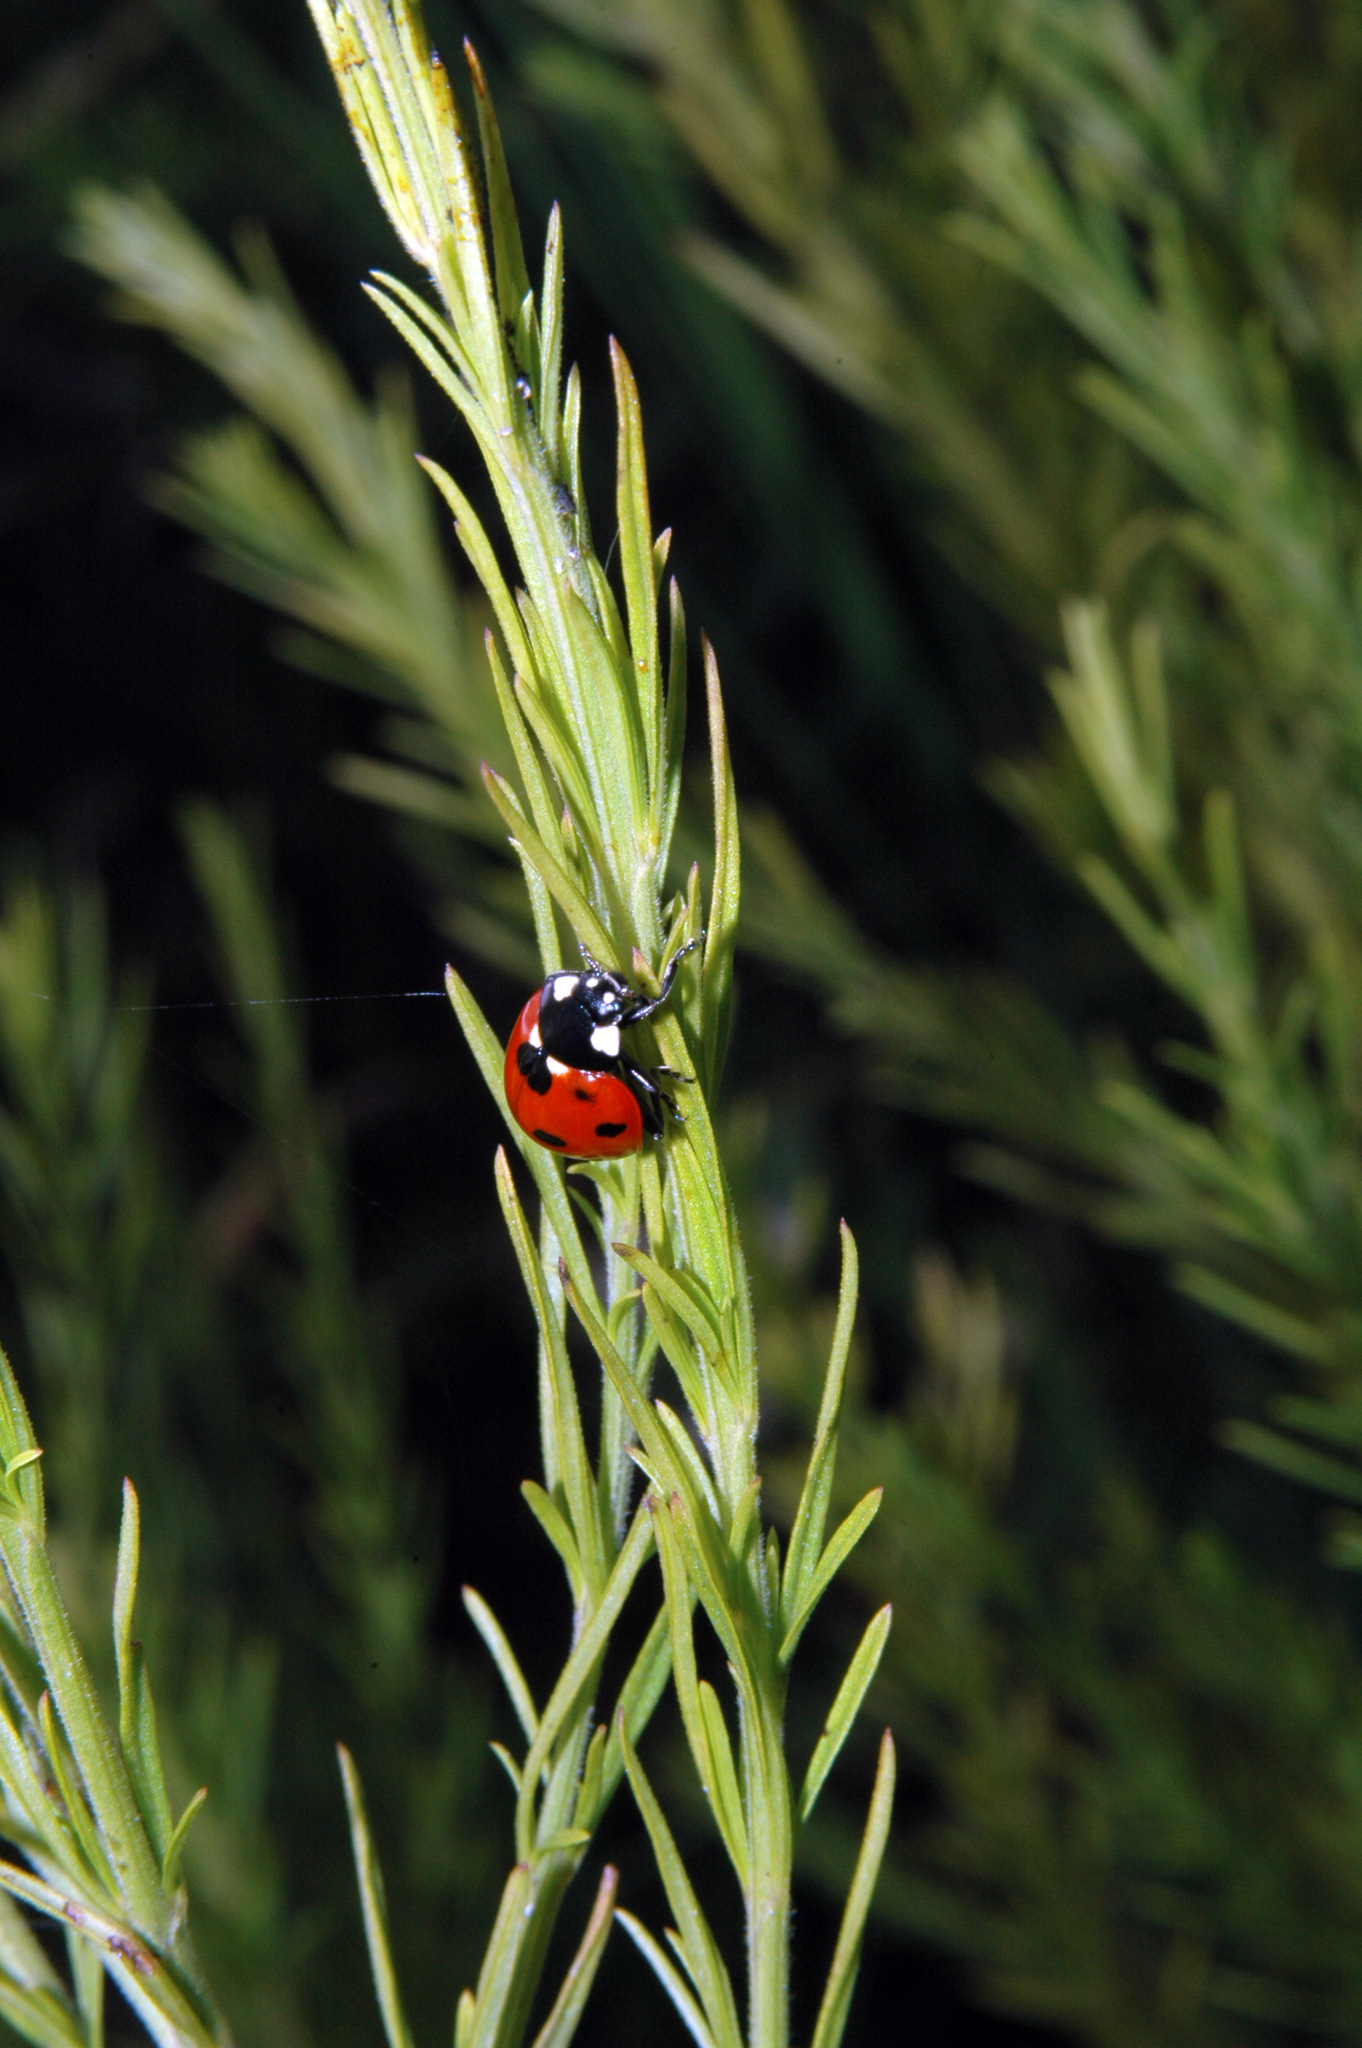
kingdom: Animalia
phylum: Arthropoda
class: Insecta
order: Coleoptera
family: Coccinellidae
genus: Coccinella
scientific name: Coccinella septempunctata
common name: Sevenspotted lady beetle
